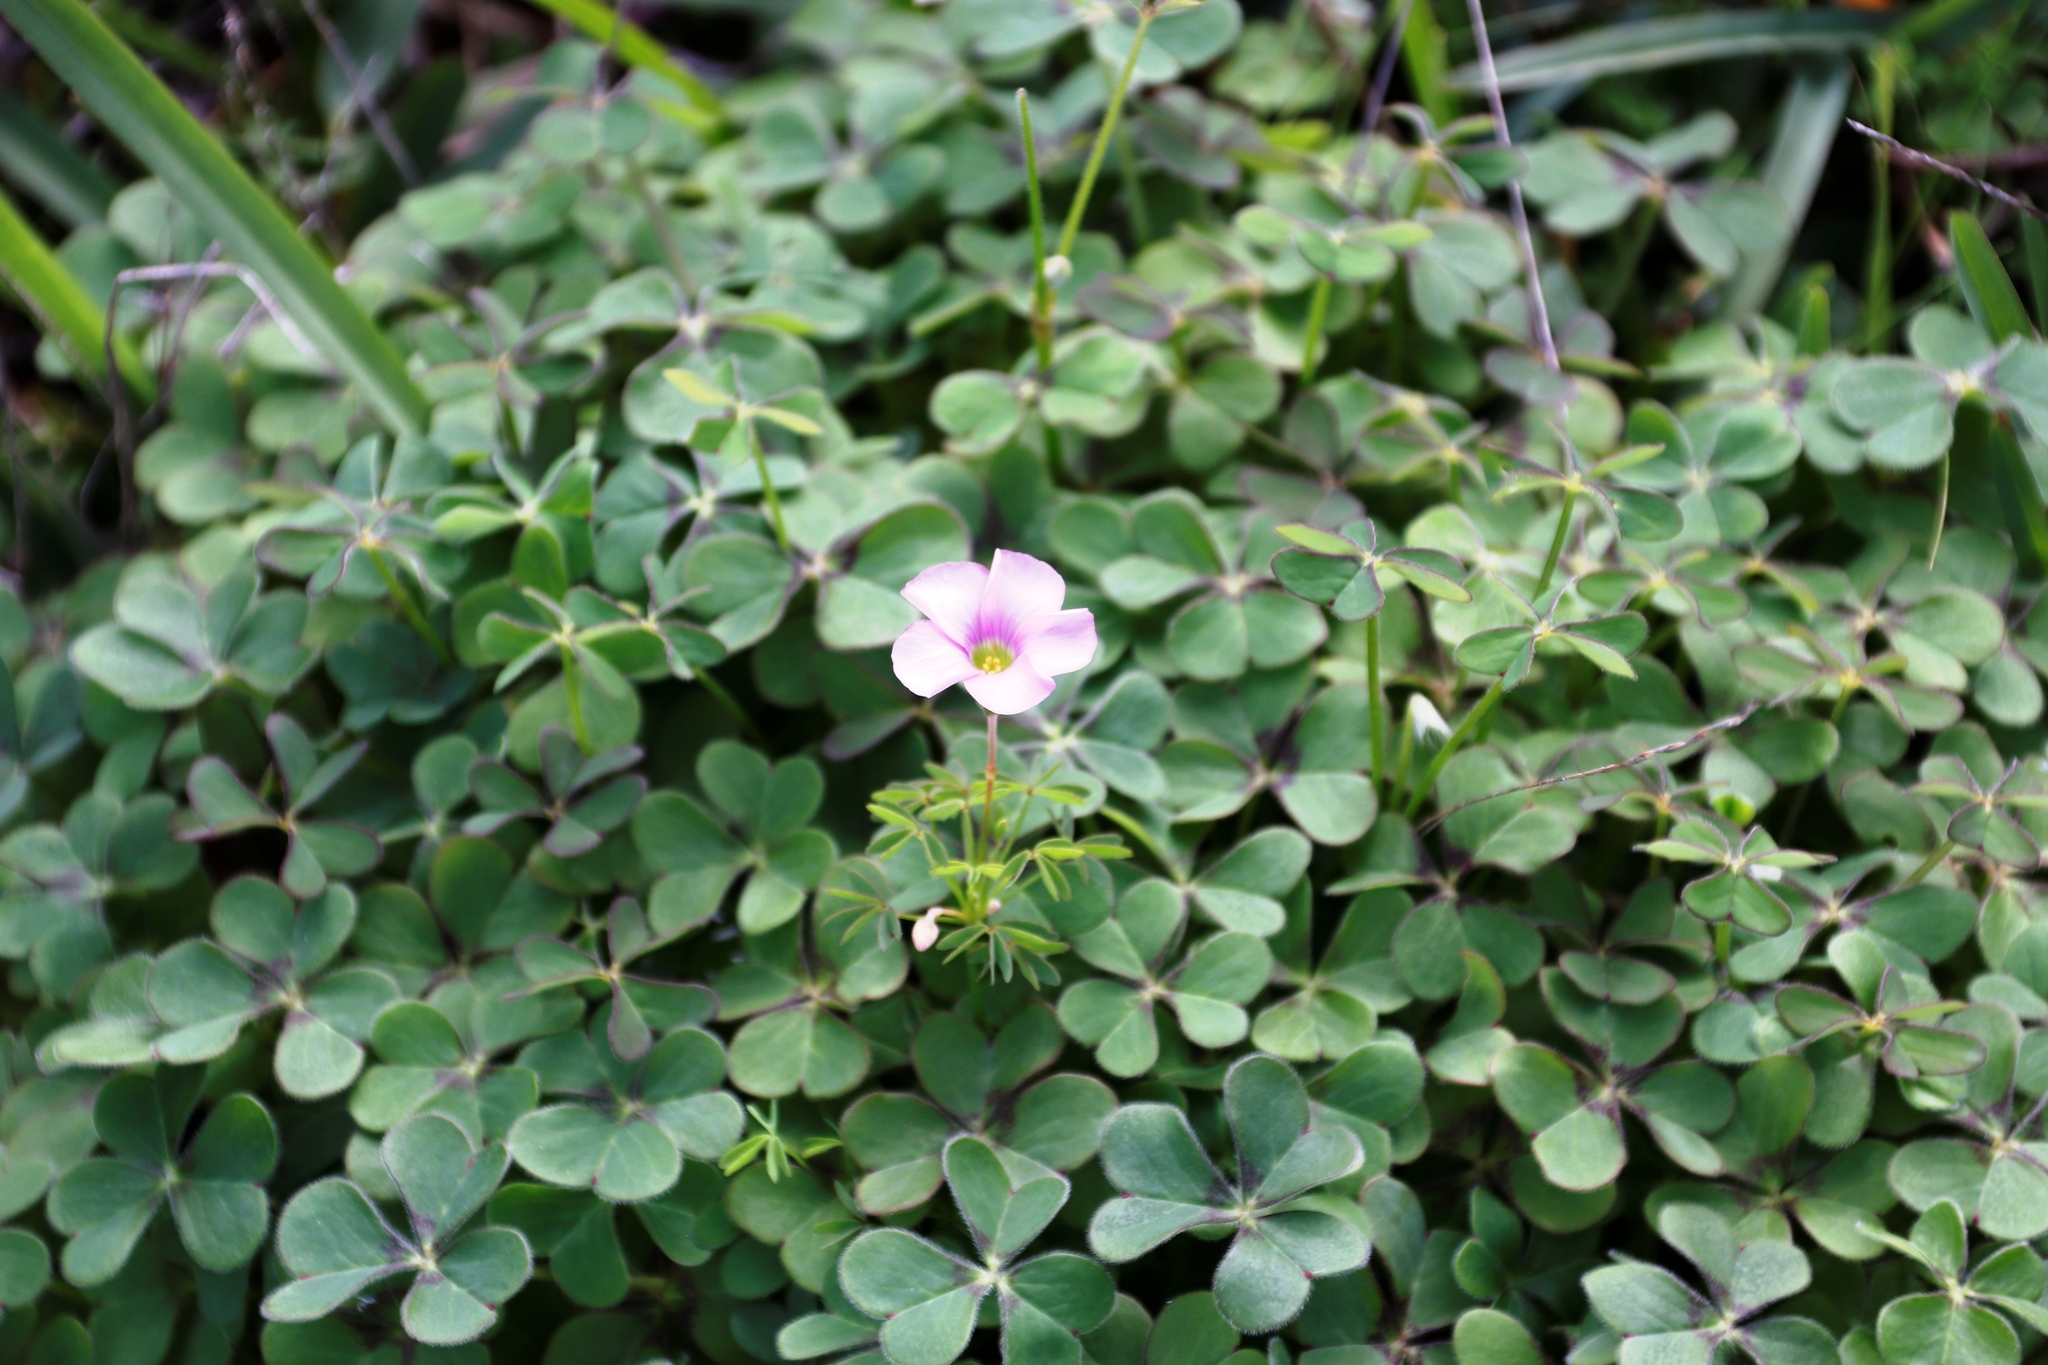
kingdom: Plantae
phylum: Tracheophyta
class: Magnoliopsida
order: Oxalidales
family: Oxalidaceae
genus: Oxalis
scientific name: Oxalis bifida
